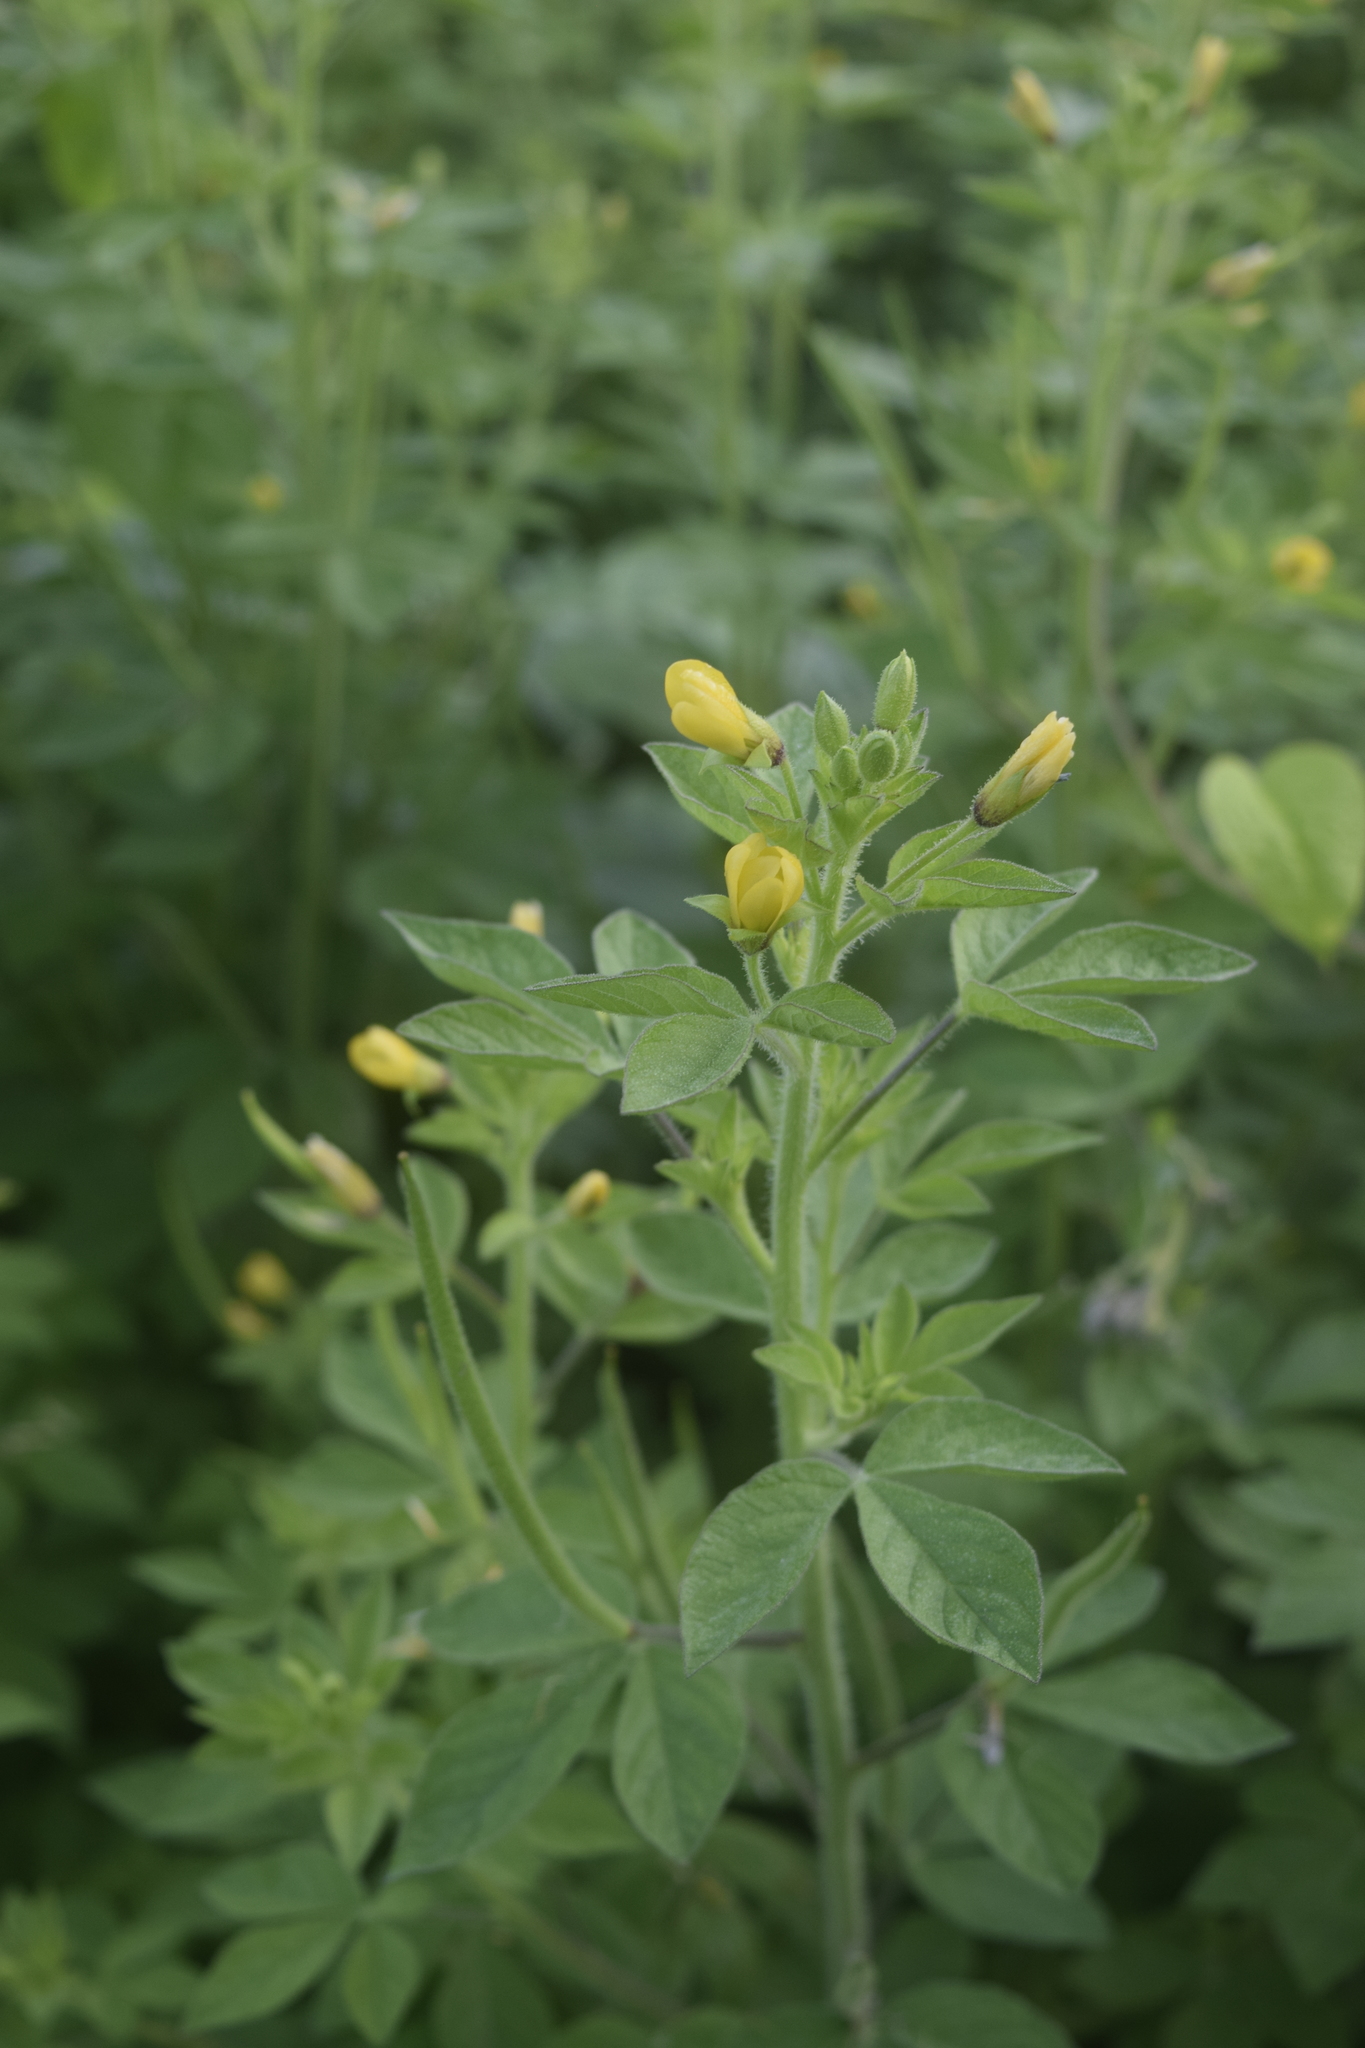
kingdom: Plantae
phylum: Tracheophyta
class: Magnoliopsida
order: Brassicales
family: Cleomaceae
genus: Arivela
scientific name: Arivela viscosa
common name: Asian spiderflower
